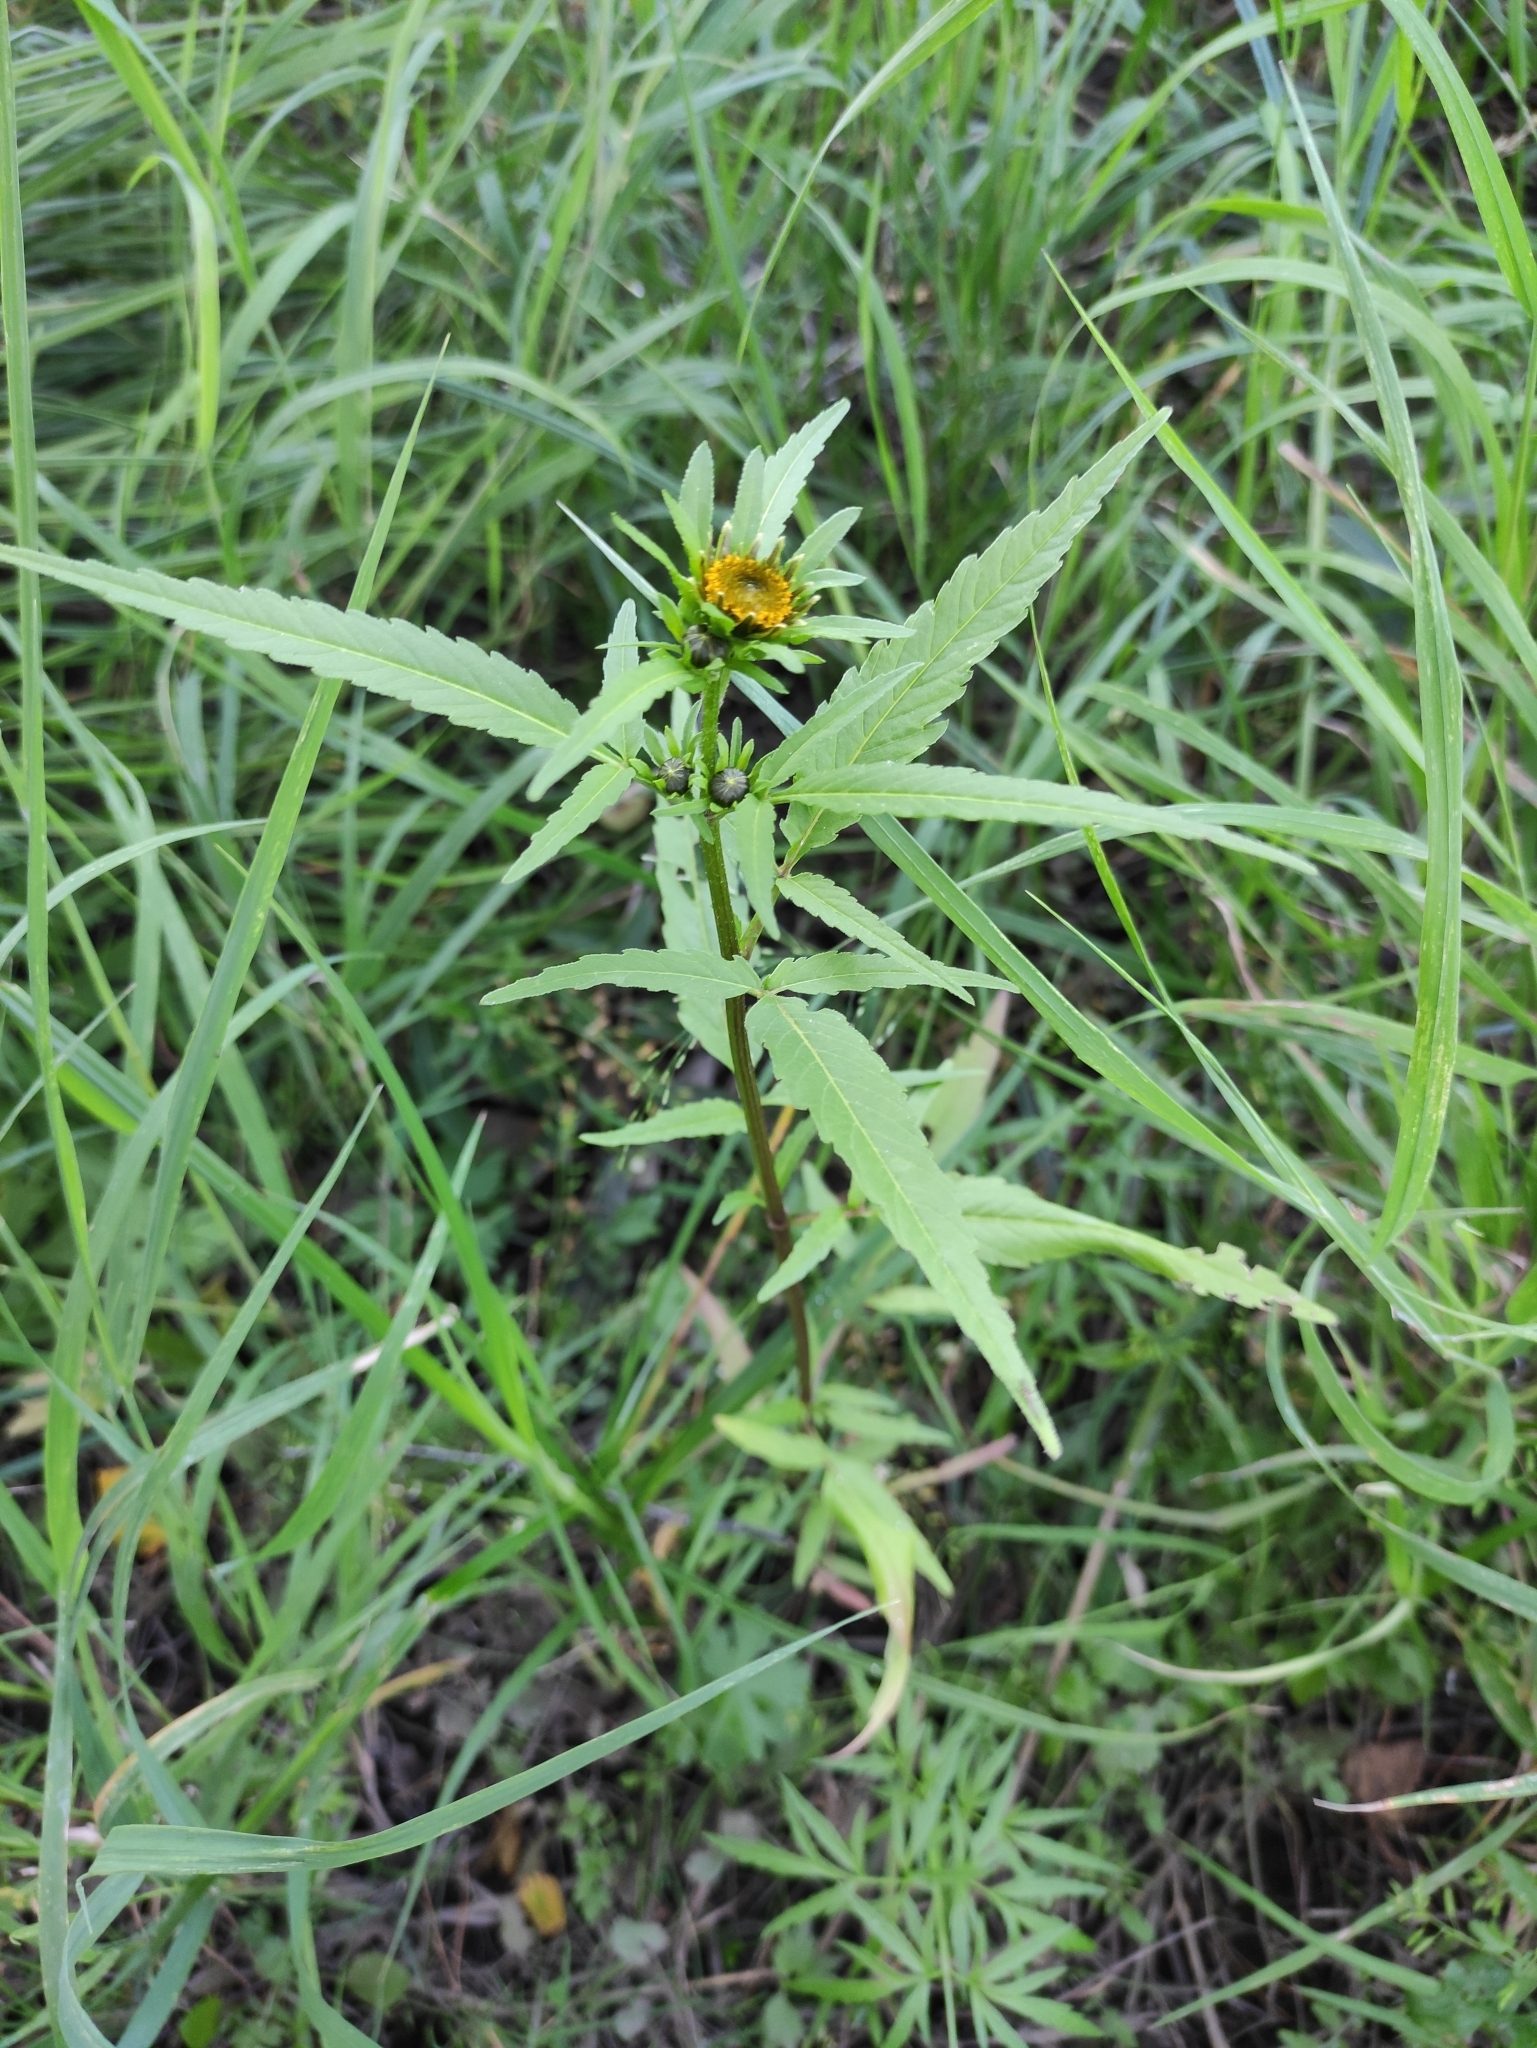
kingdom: Plantae
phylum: Tracheophyta
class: Magnoliopsida
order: Asterales
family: Asteraceae
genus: Bidens
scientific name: Bidens radiata
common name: Radiating bur-marigold
